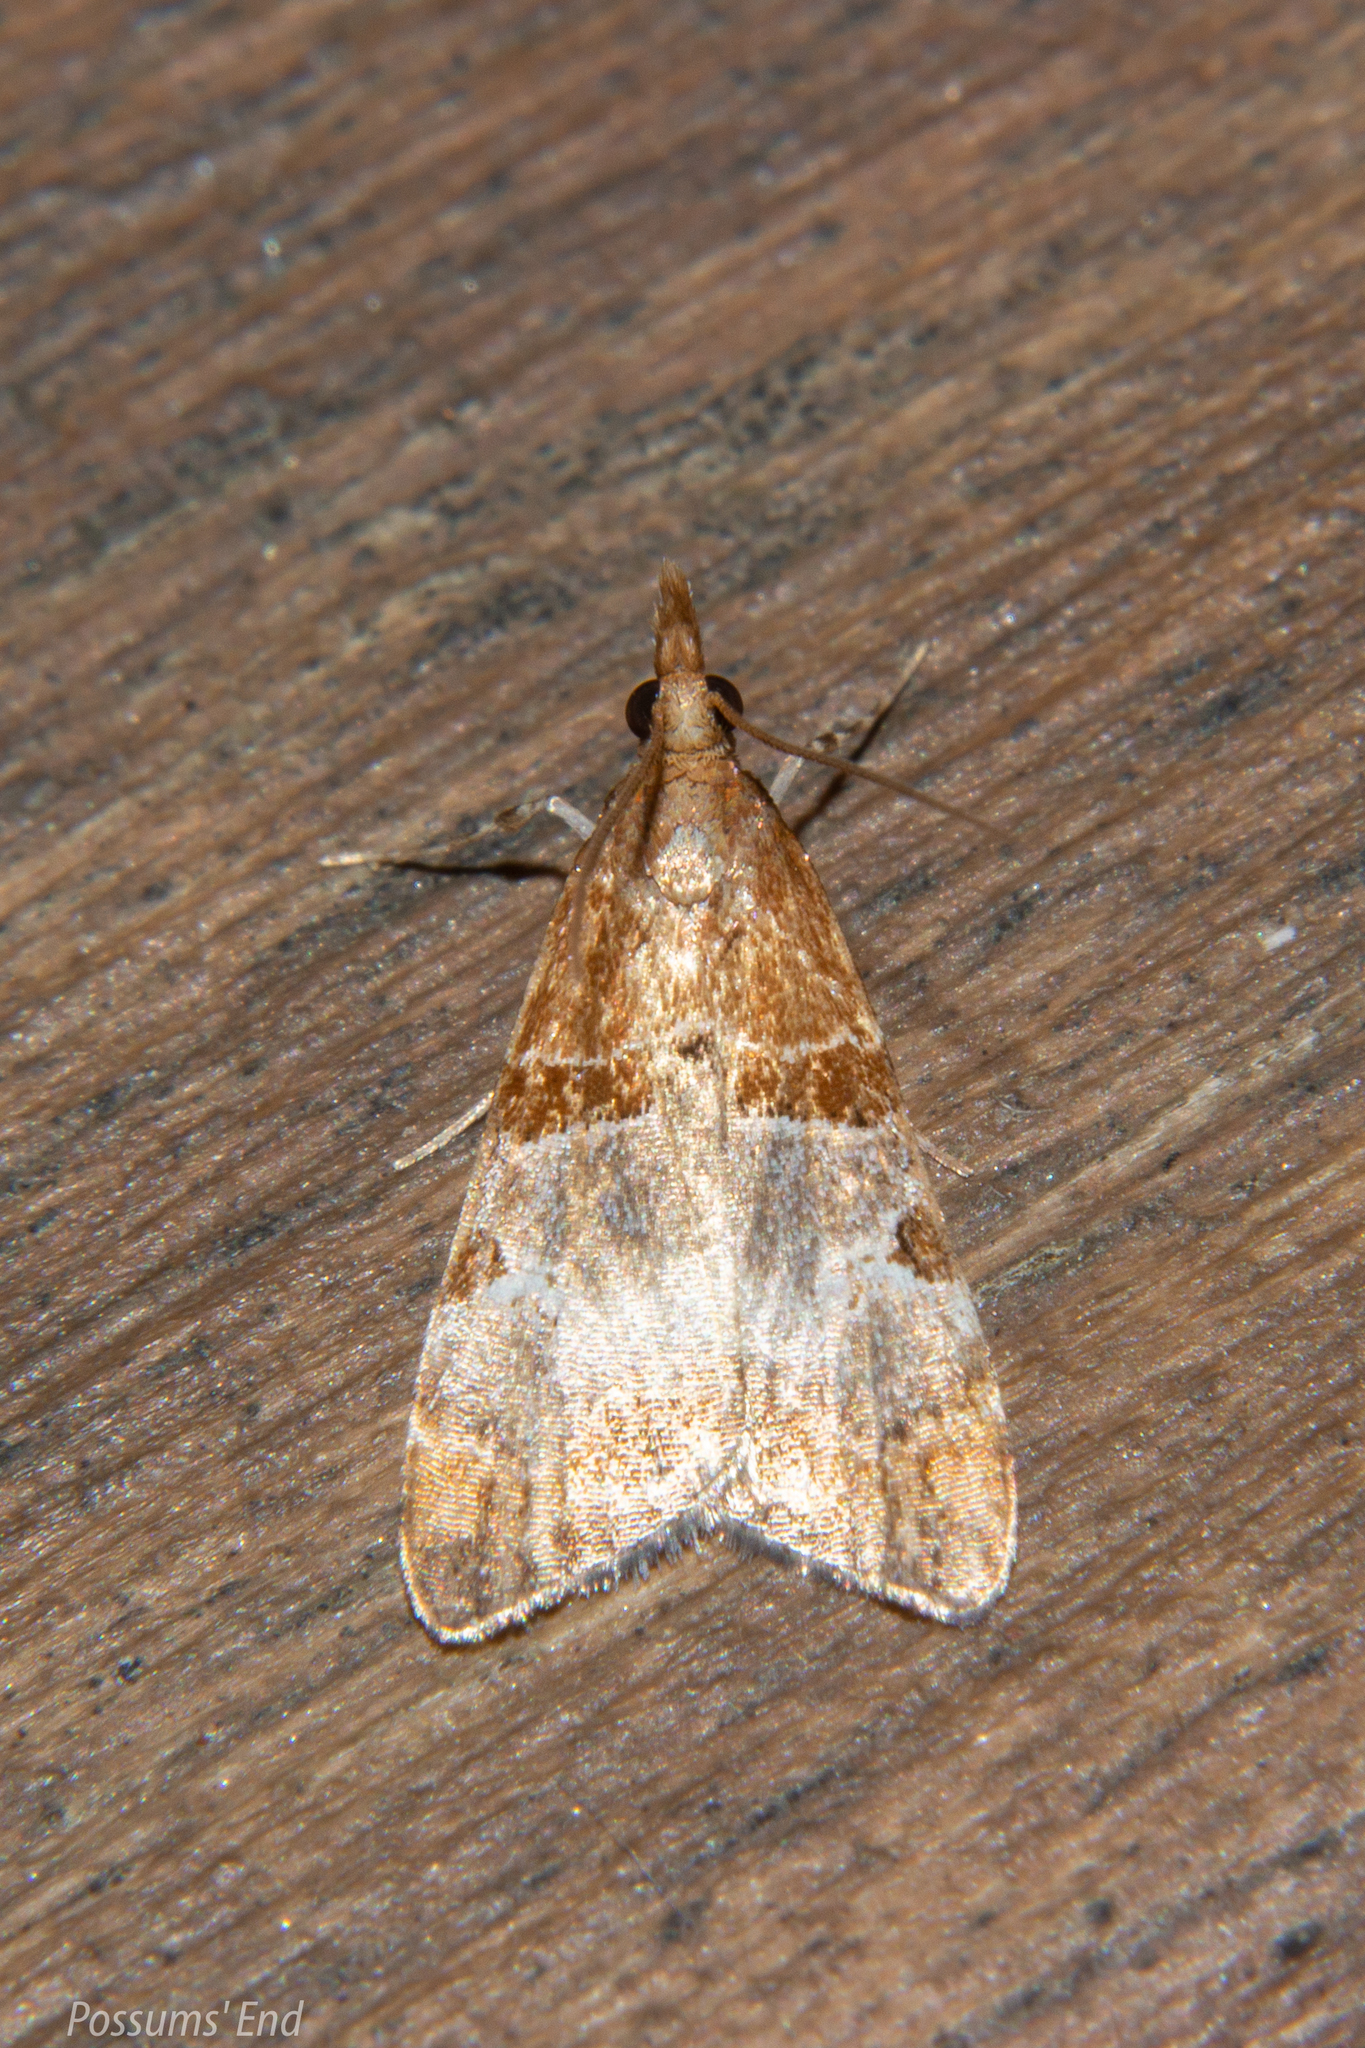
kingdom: Animalia
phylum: Arthropoda
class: Insecta
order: Lepidoptera
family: Crambidae
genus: Antiscopa
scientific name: Antiscopa epicomia
